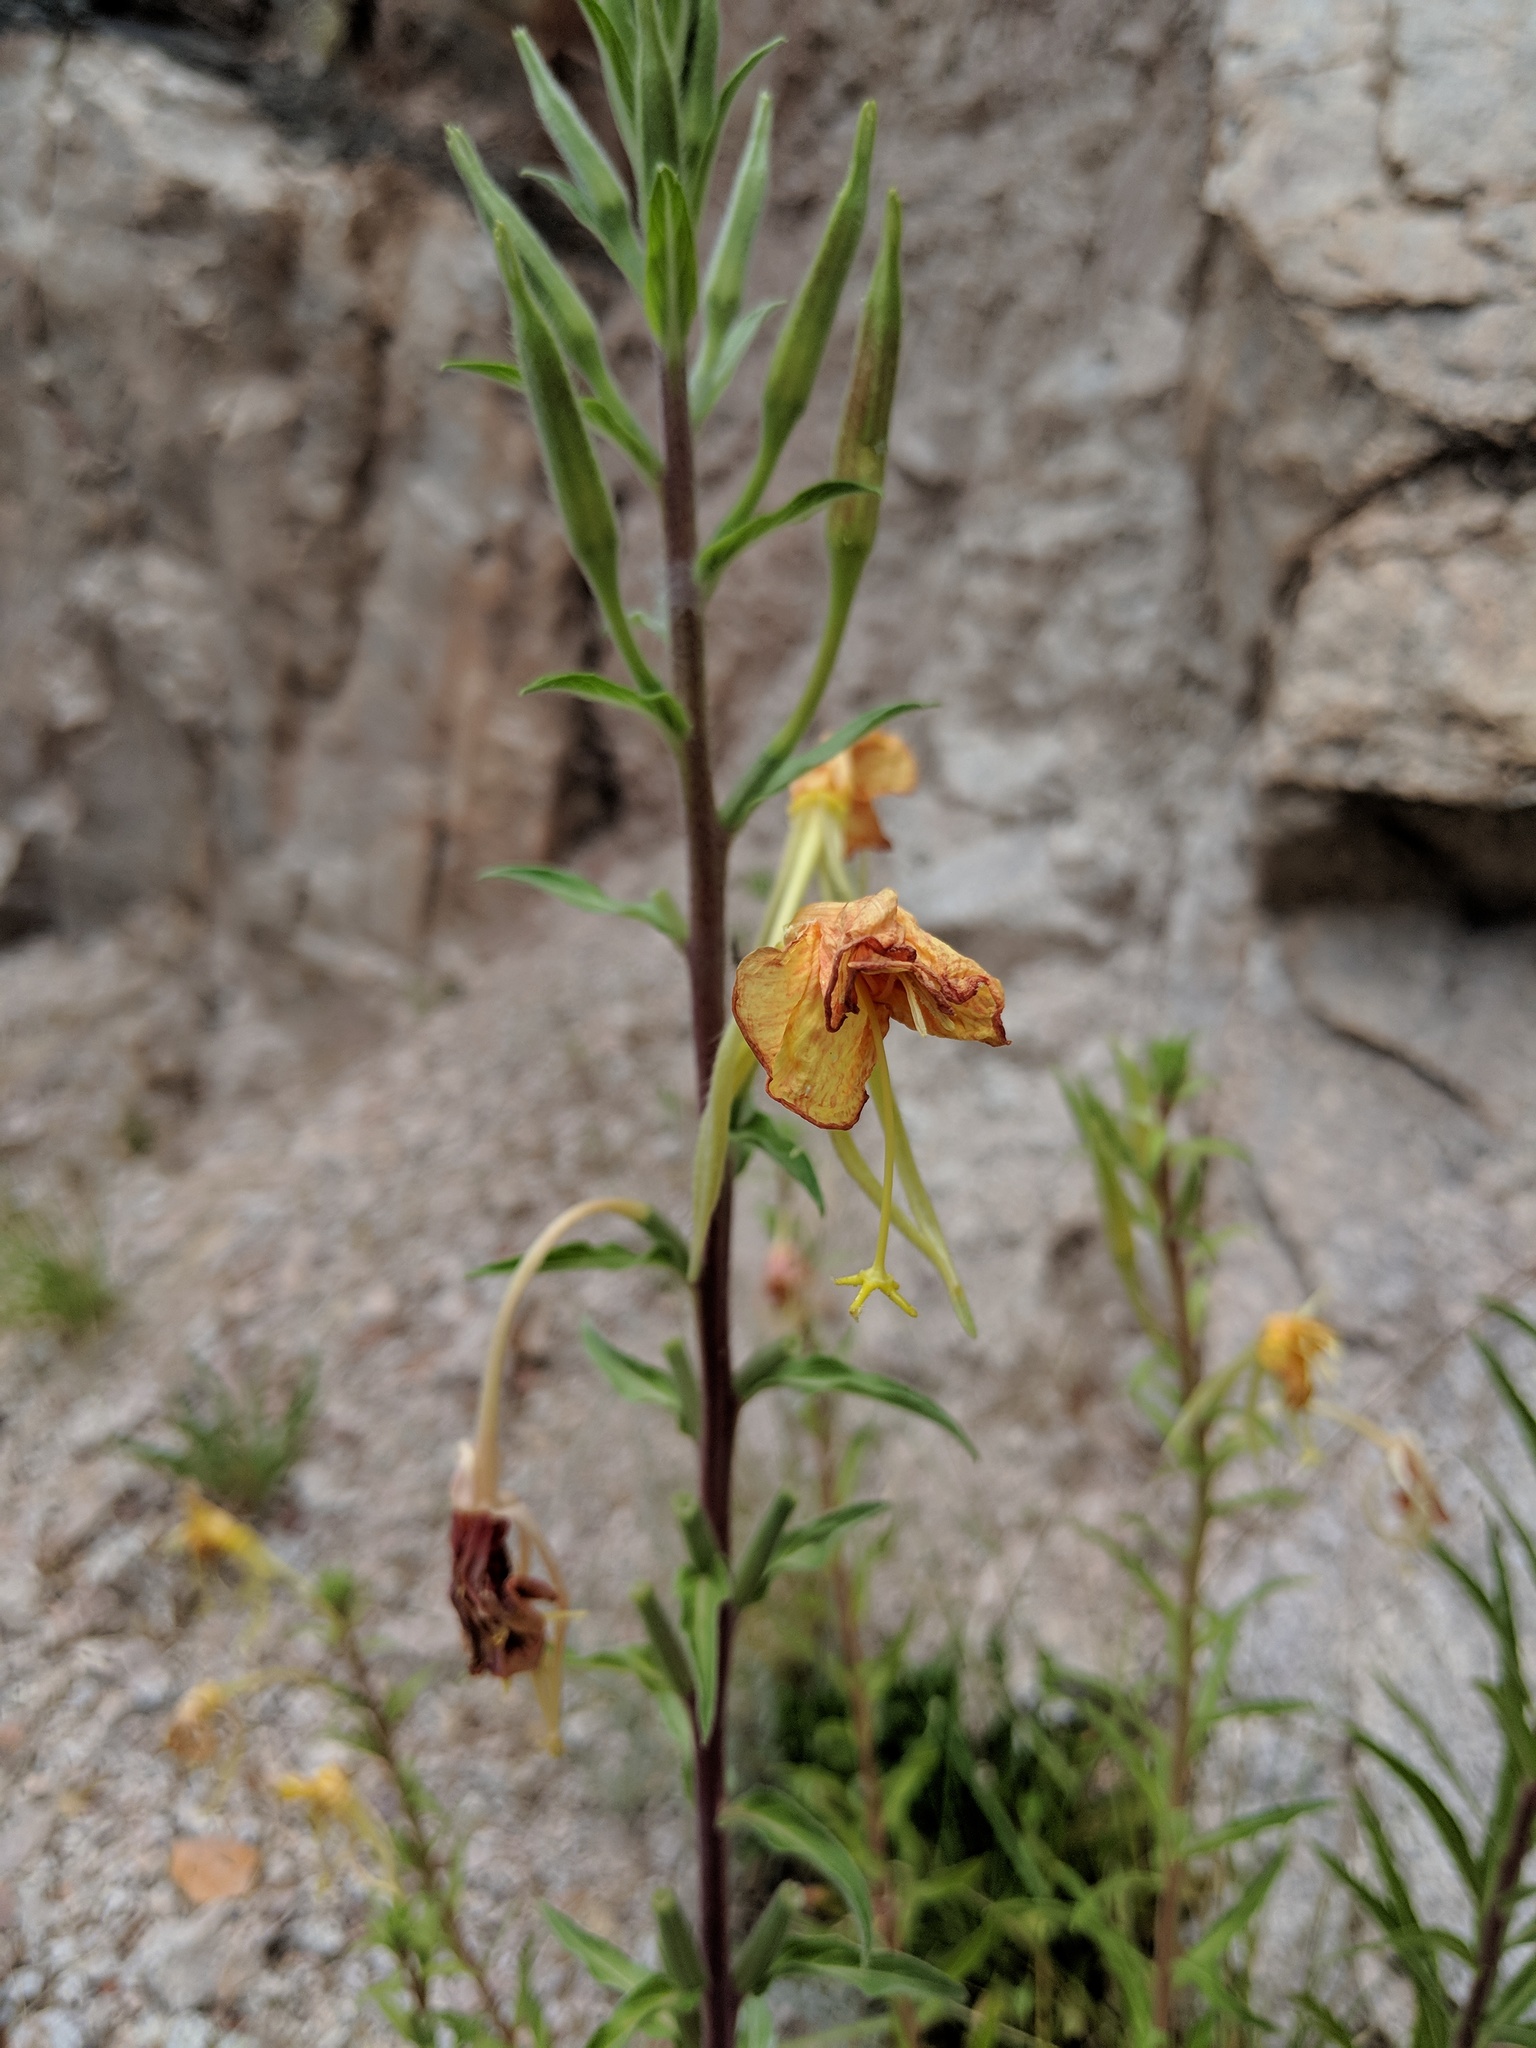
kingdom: Plantae
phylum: Tracheophyta
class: Magnoliopsida
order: Myrtales
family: Onagraceae
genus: Oenothera
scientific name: Oenothera elata
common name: Hooker's evening-primrose
